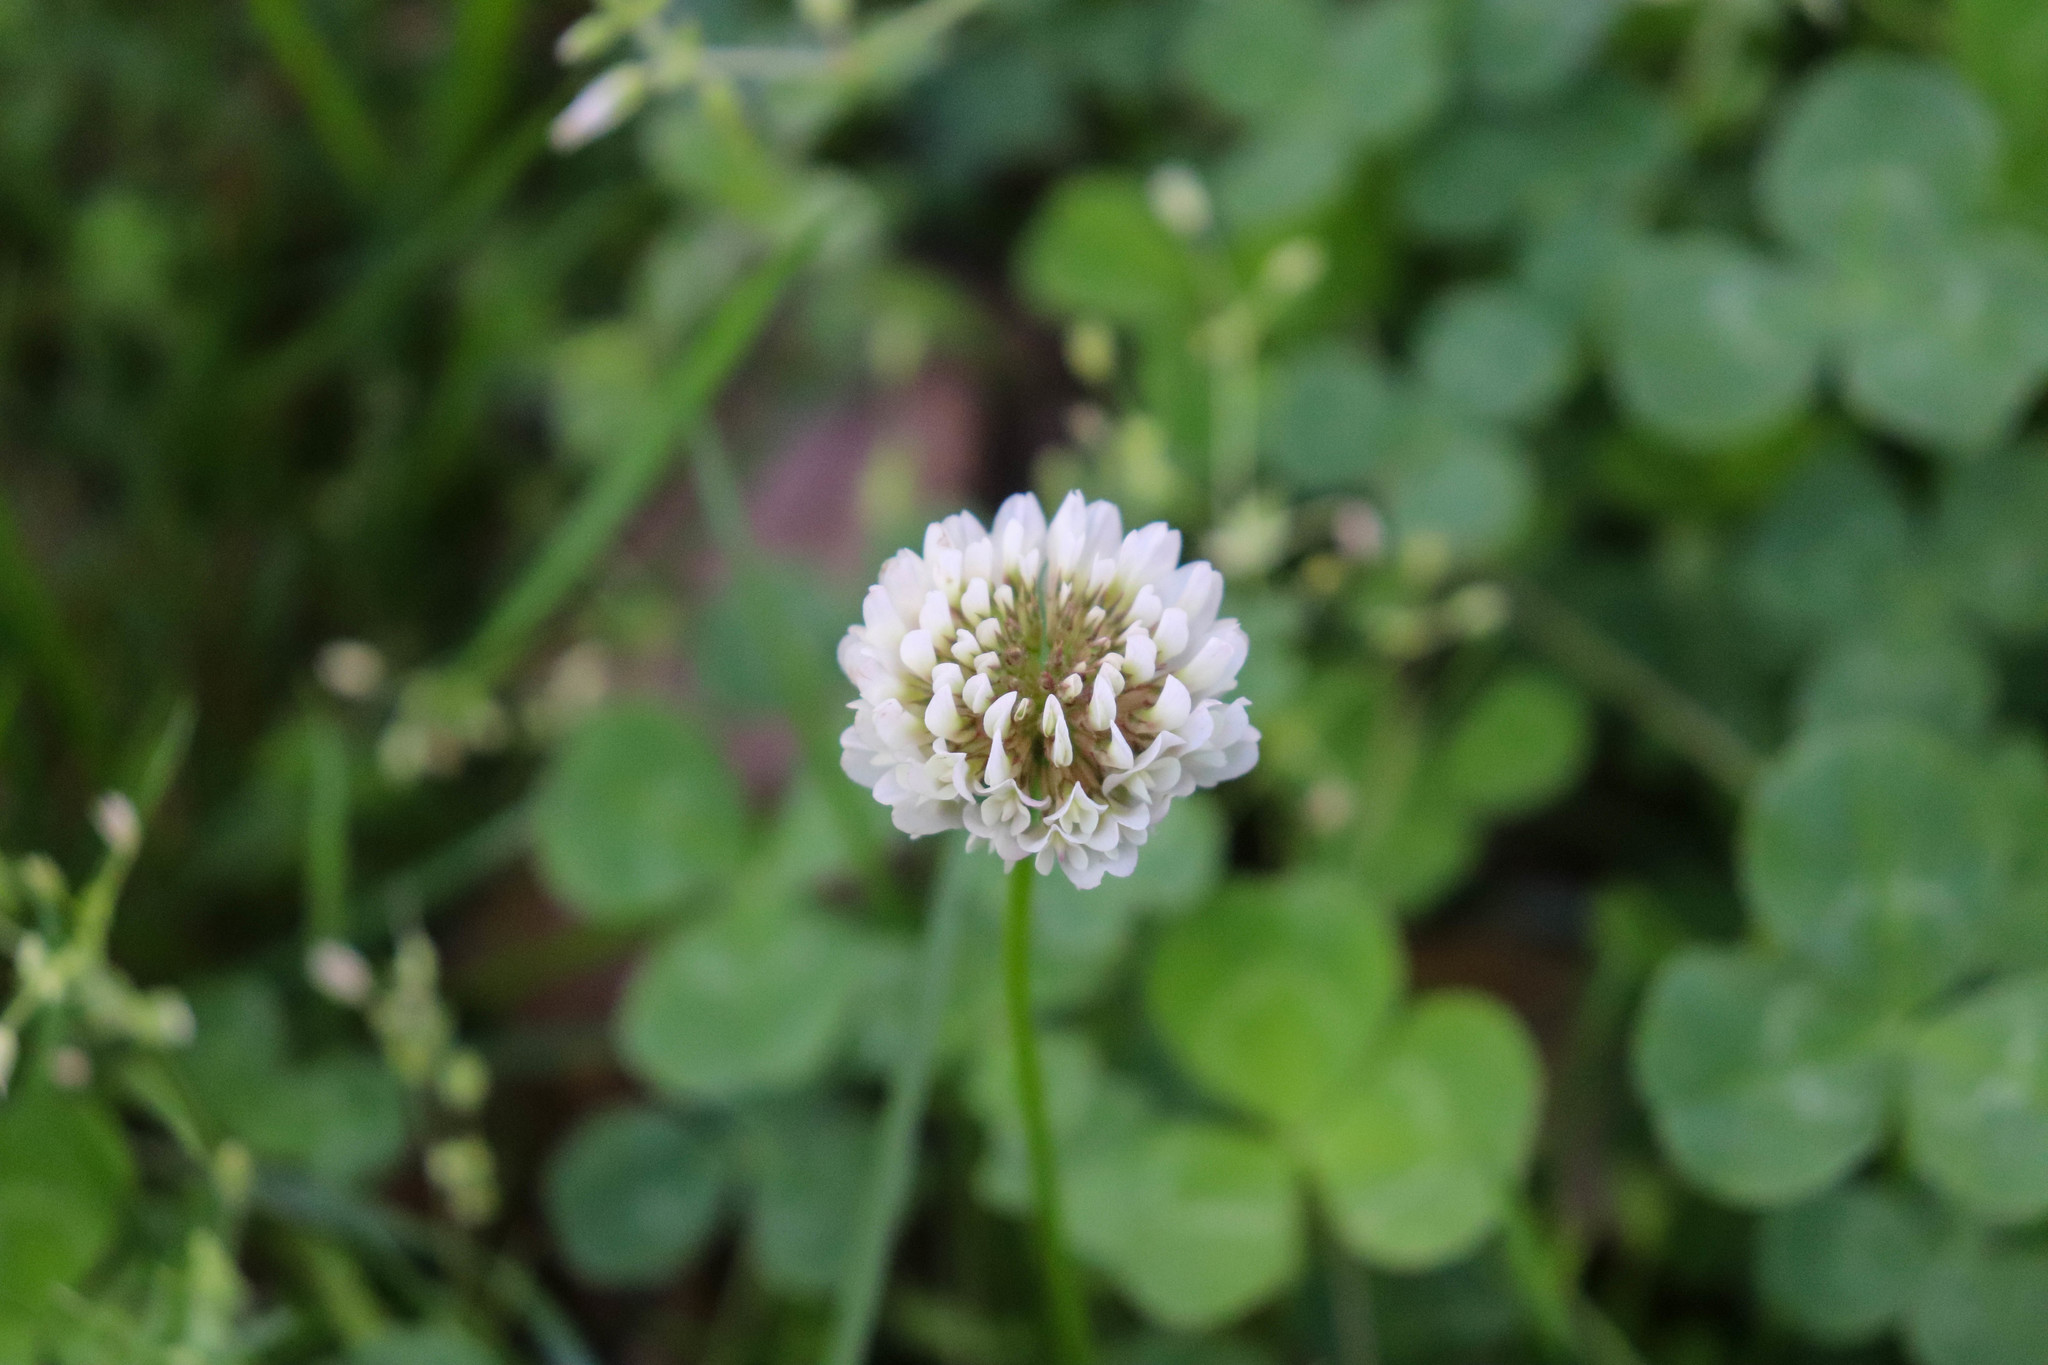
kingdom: Plantae
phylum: Tracheophyta
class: Magnoliopsida
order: Fabales
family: Fabaceae
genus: Trifolium
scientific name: Trifolium repens
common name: White clover
